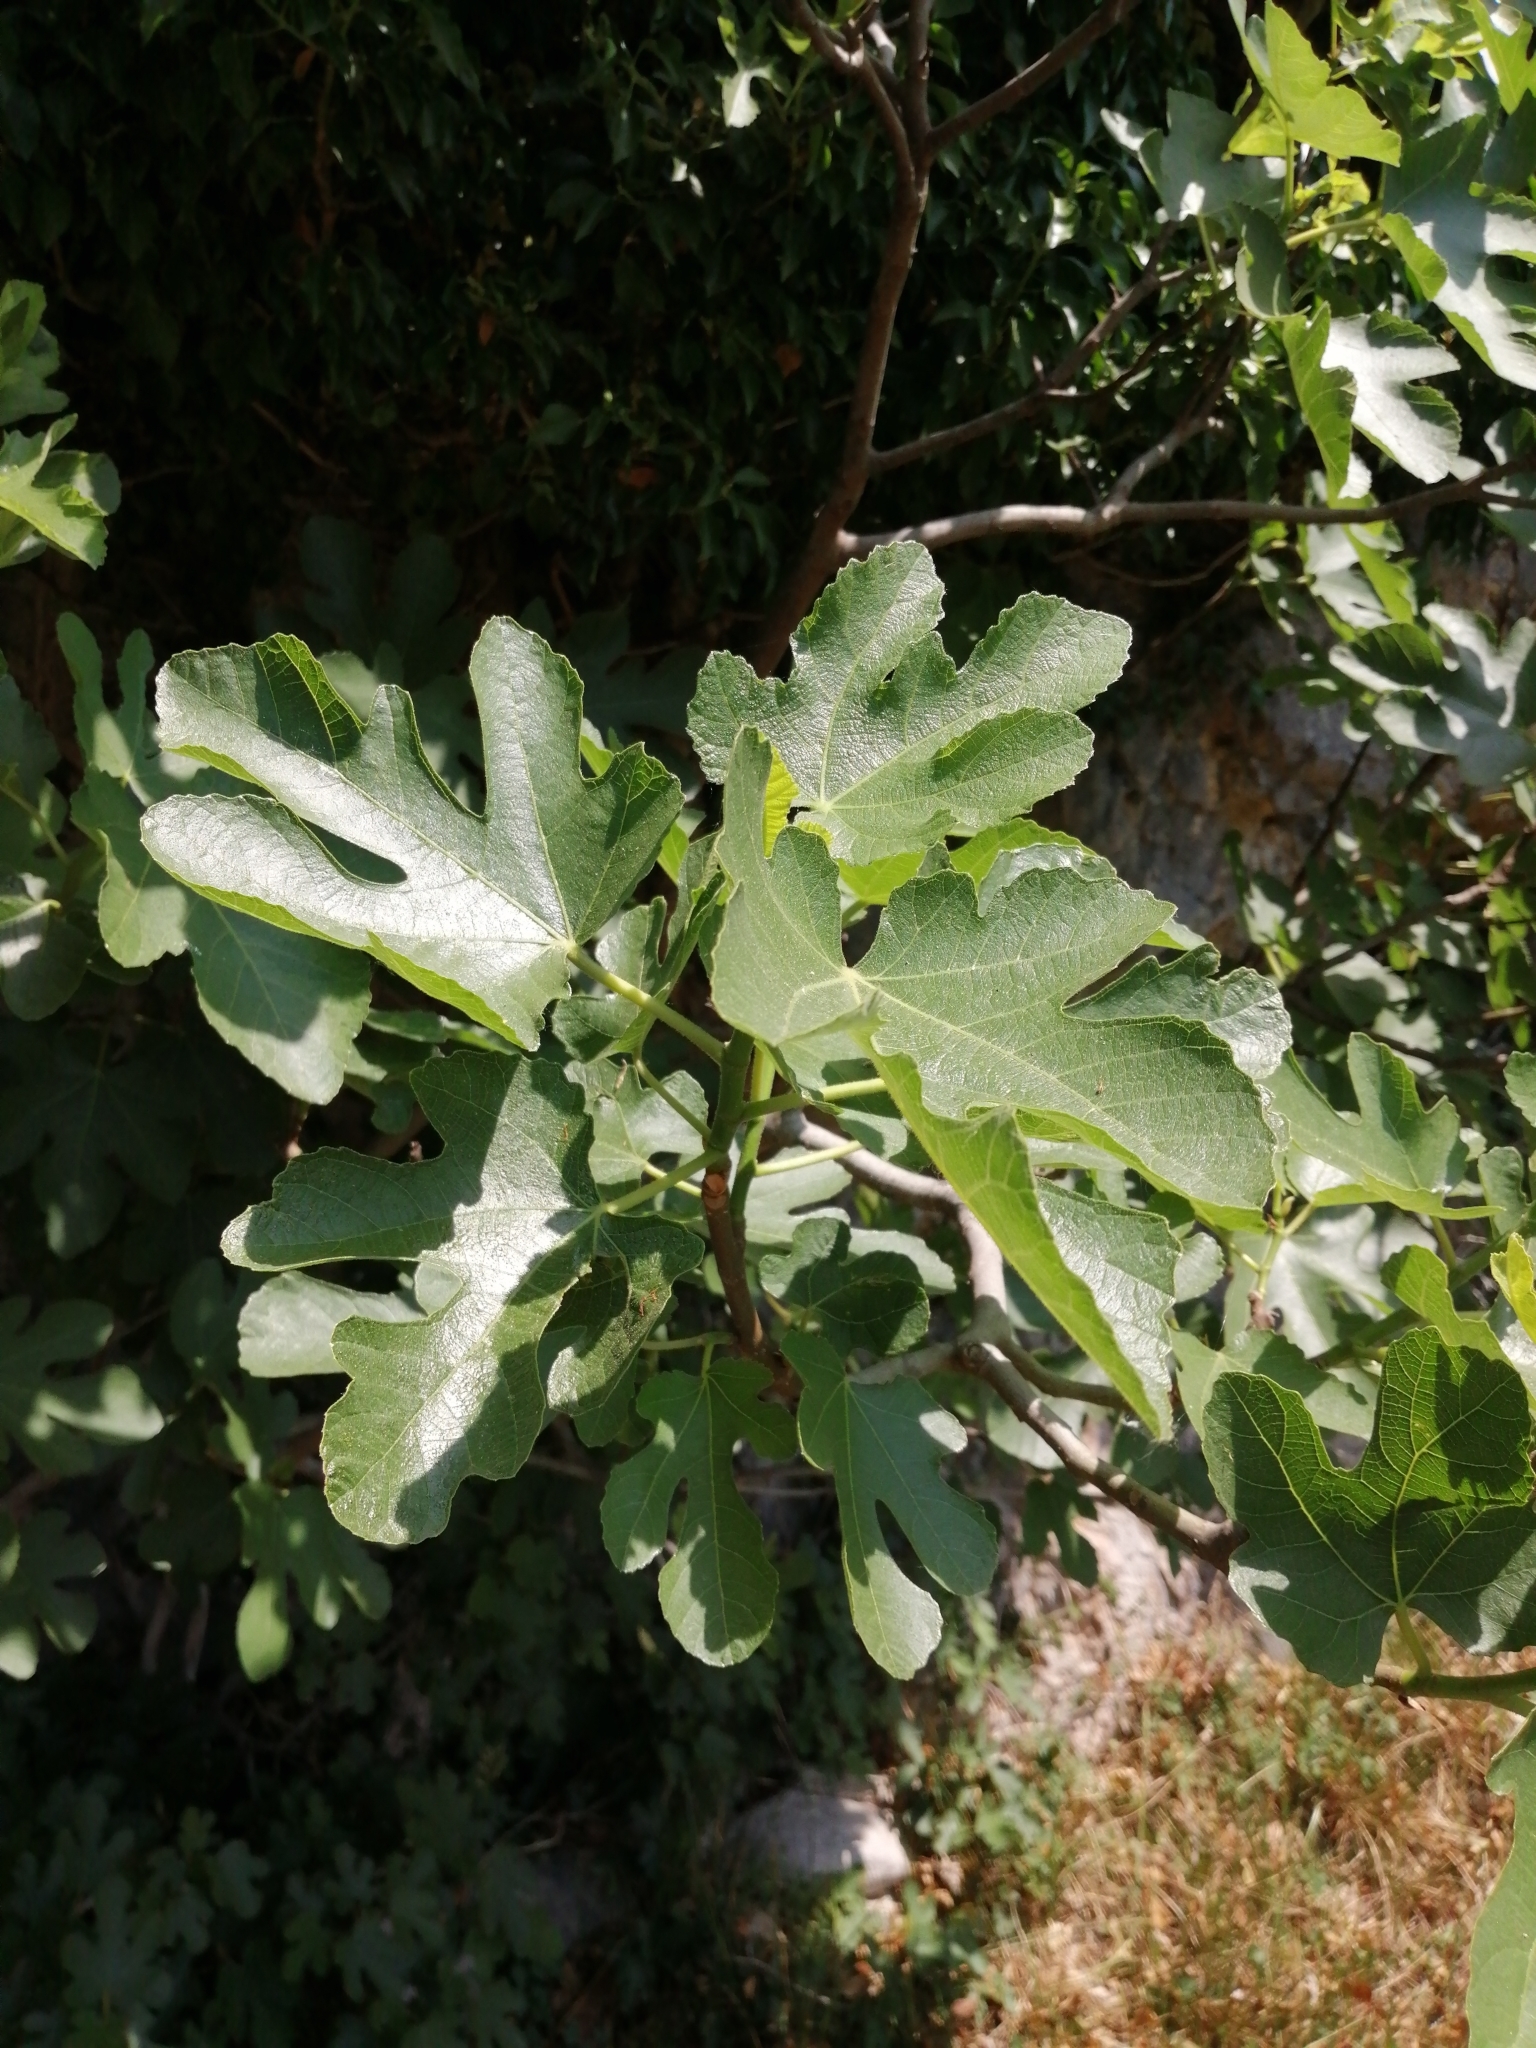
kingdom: Plantae
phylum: Tracheophyta
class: Magnoliopsida
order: Rosales
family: Moraceae
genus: Ficus
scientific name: Ficus carica
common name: Fig
